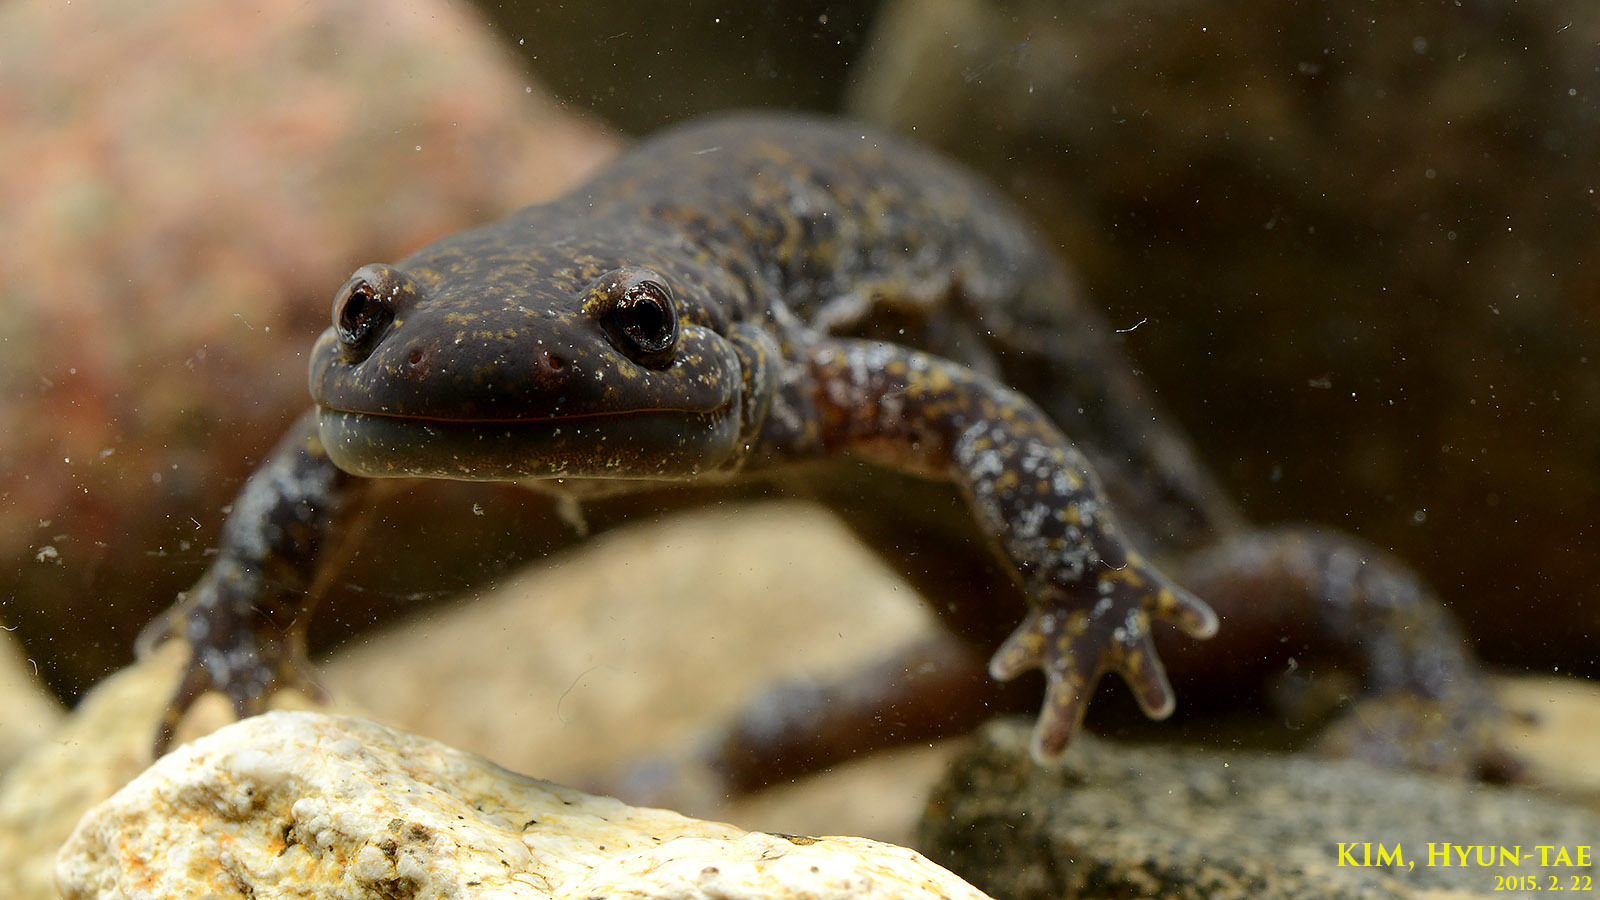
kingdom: Animalia
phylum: Chordata
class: Amphibia
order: Caudata
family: Hynobiidae
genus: Hynobius
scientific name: Hynobius leechii
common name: Gensan salamander
